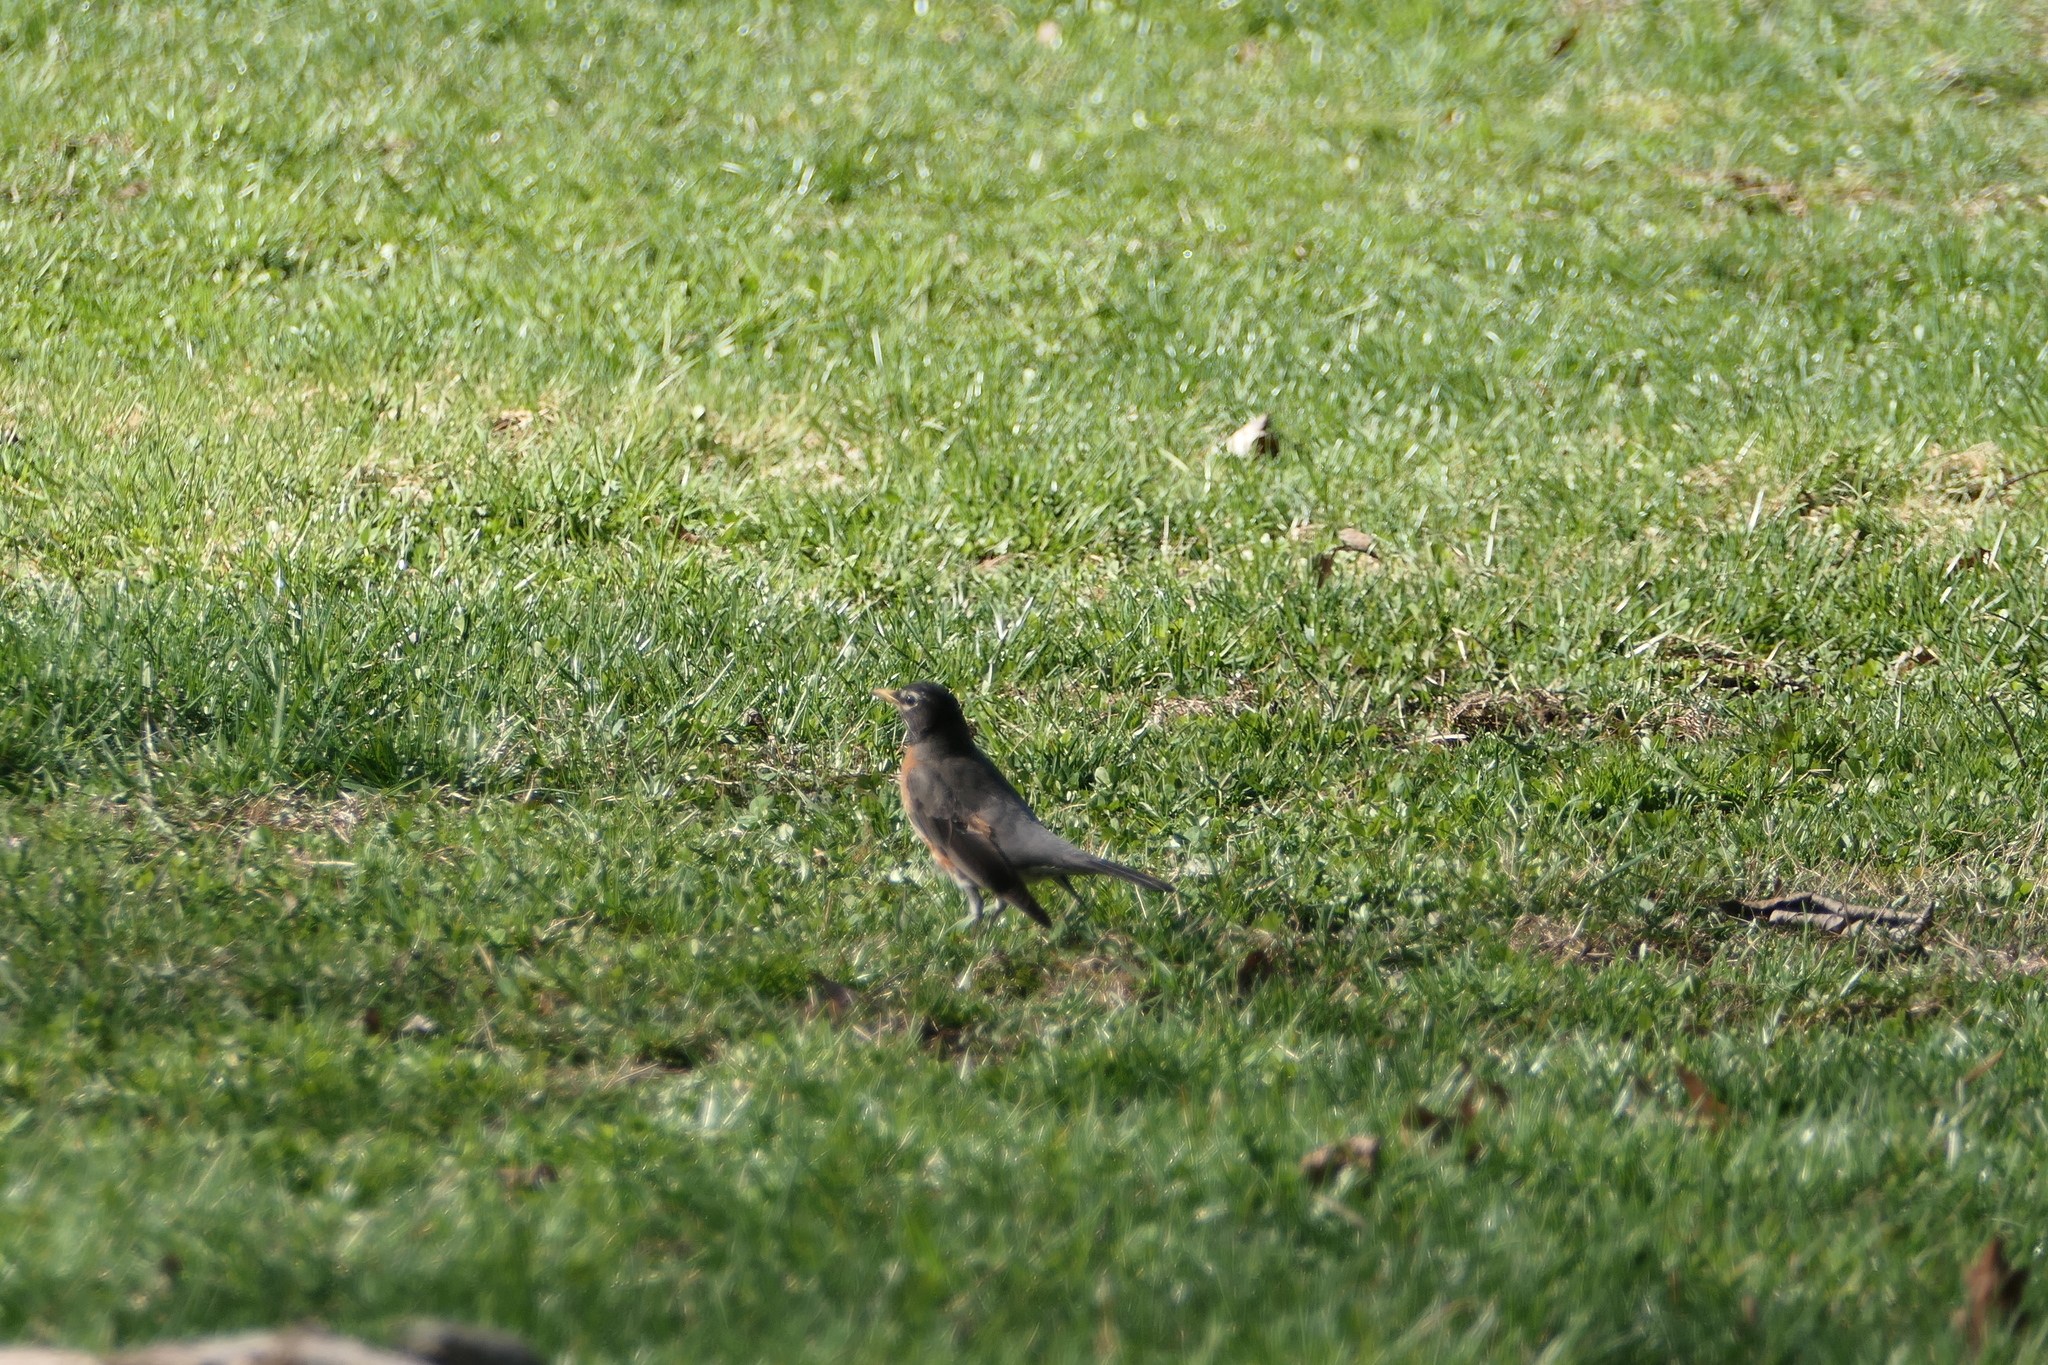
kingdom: Animalia
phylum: Chordata
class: Aves
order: Passeriformes
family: Turdidae
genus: Turdus
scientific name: Turdus migratorius
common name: American robin
